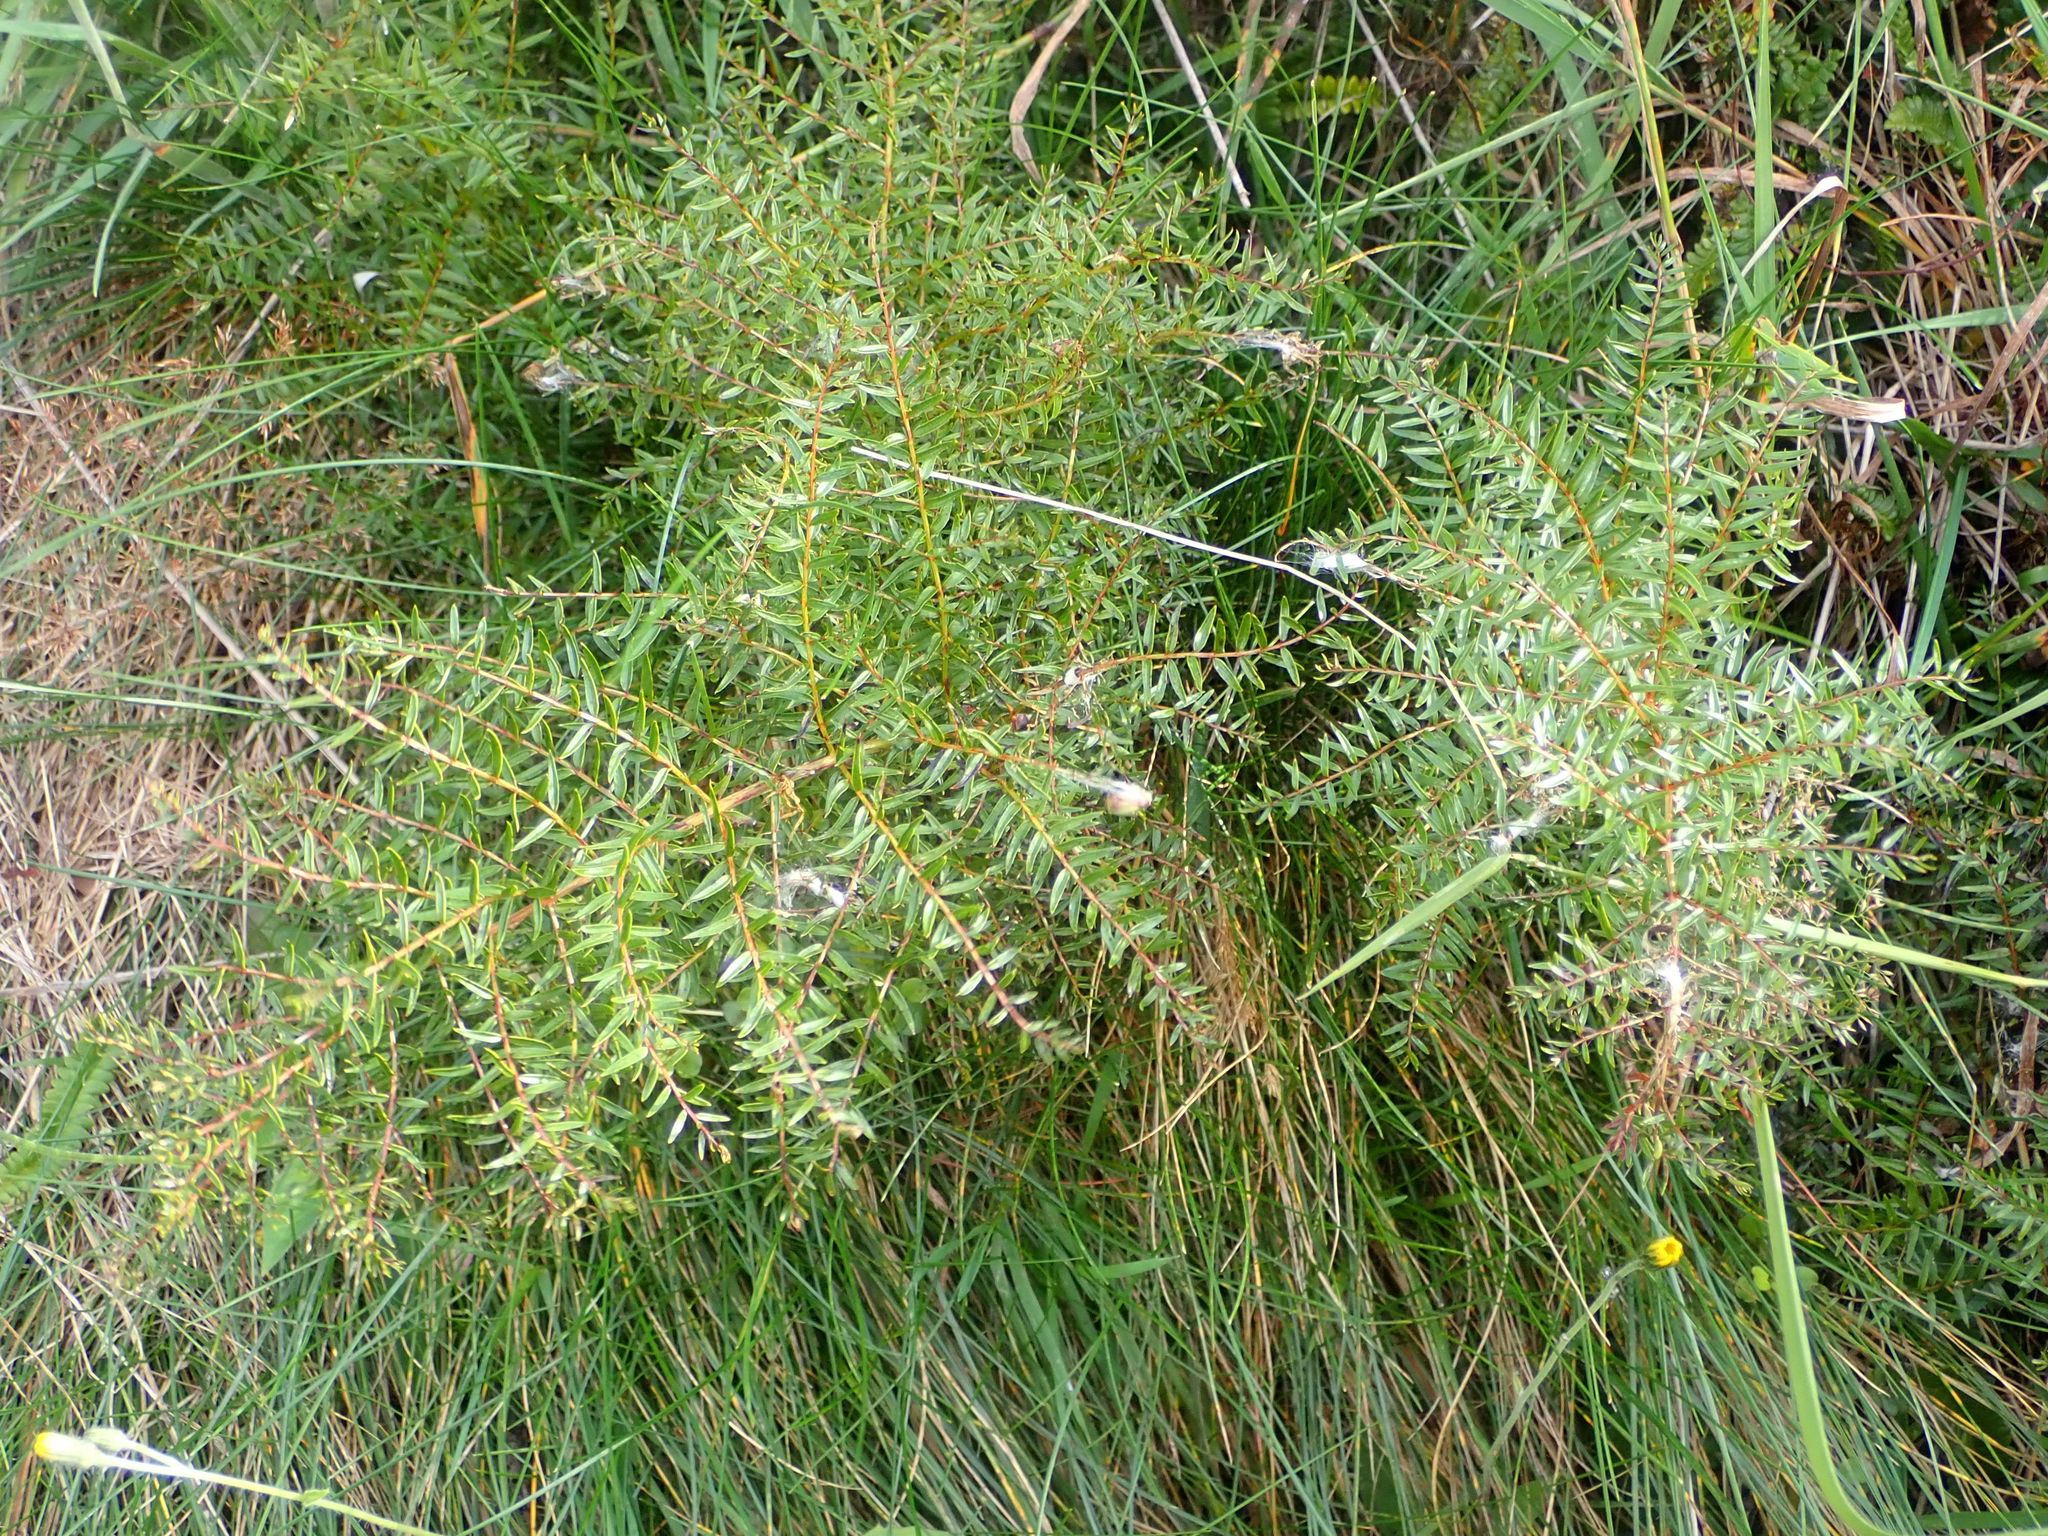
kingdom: Plantae
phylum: Tracheophyta
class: Magnoliopsida
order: Cucurbitales
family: Coriariaceae
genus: Coriaria
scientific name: Coriaria angustissima
